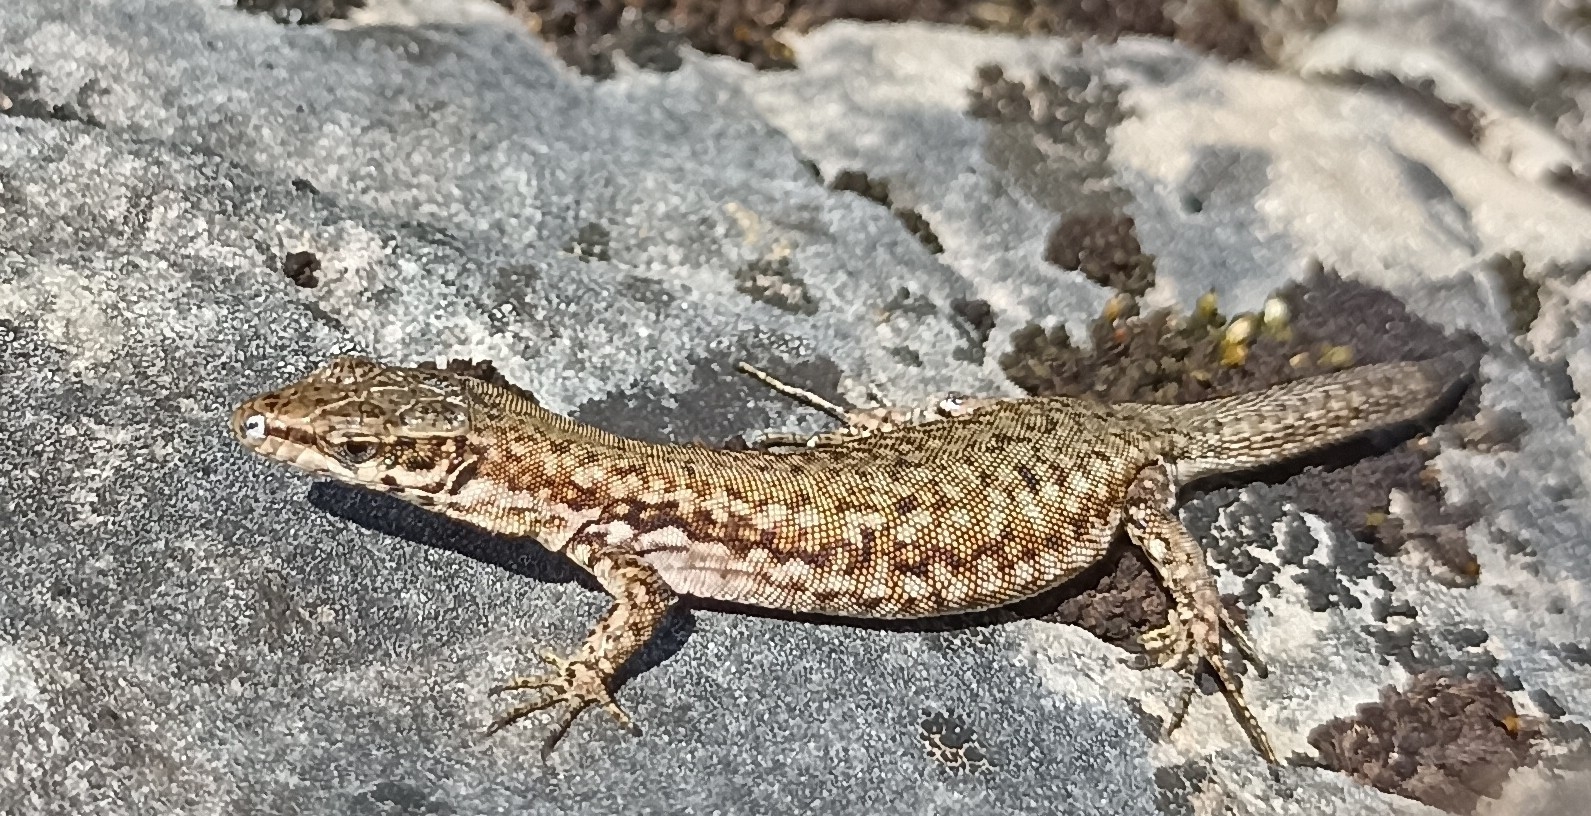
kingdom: Animalia
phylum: Chordata
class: Squamata
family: Lacertidae
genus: Podarcis
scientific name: Podarcis liolepis
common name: Catalonian wall lizard
